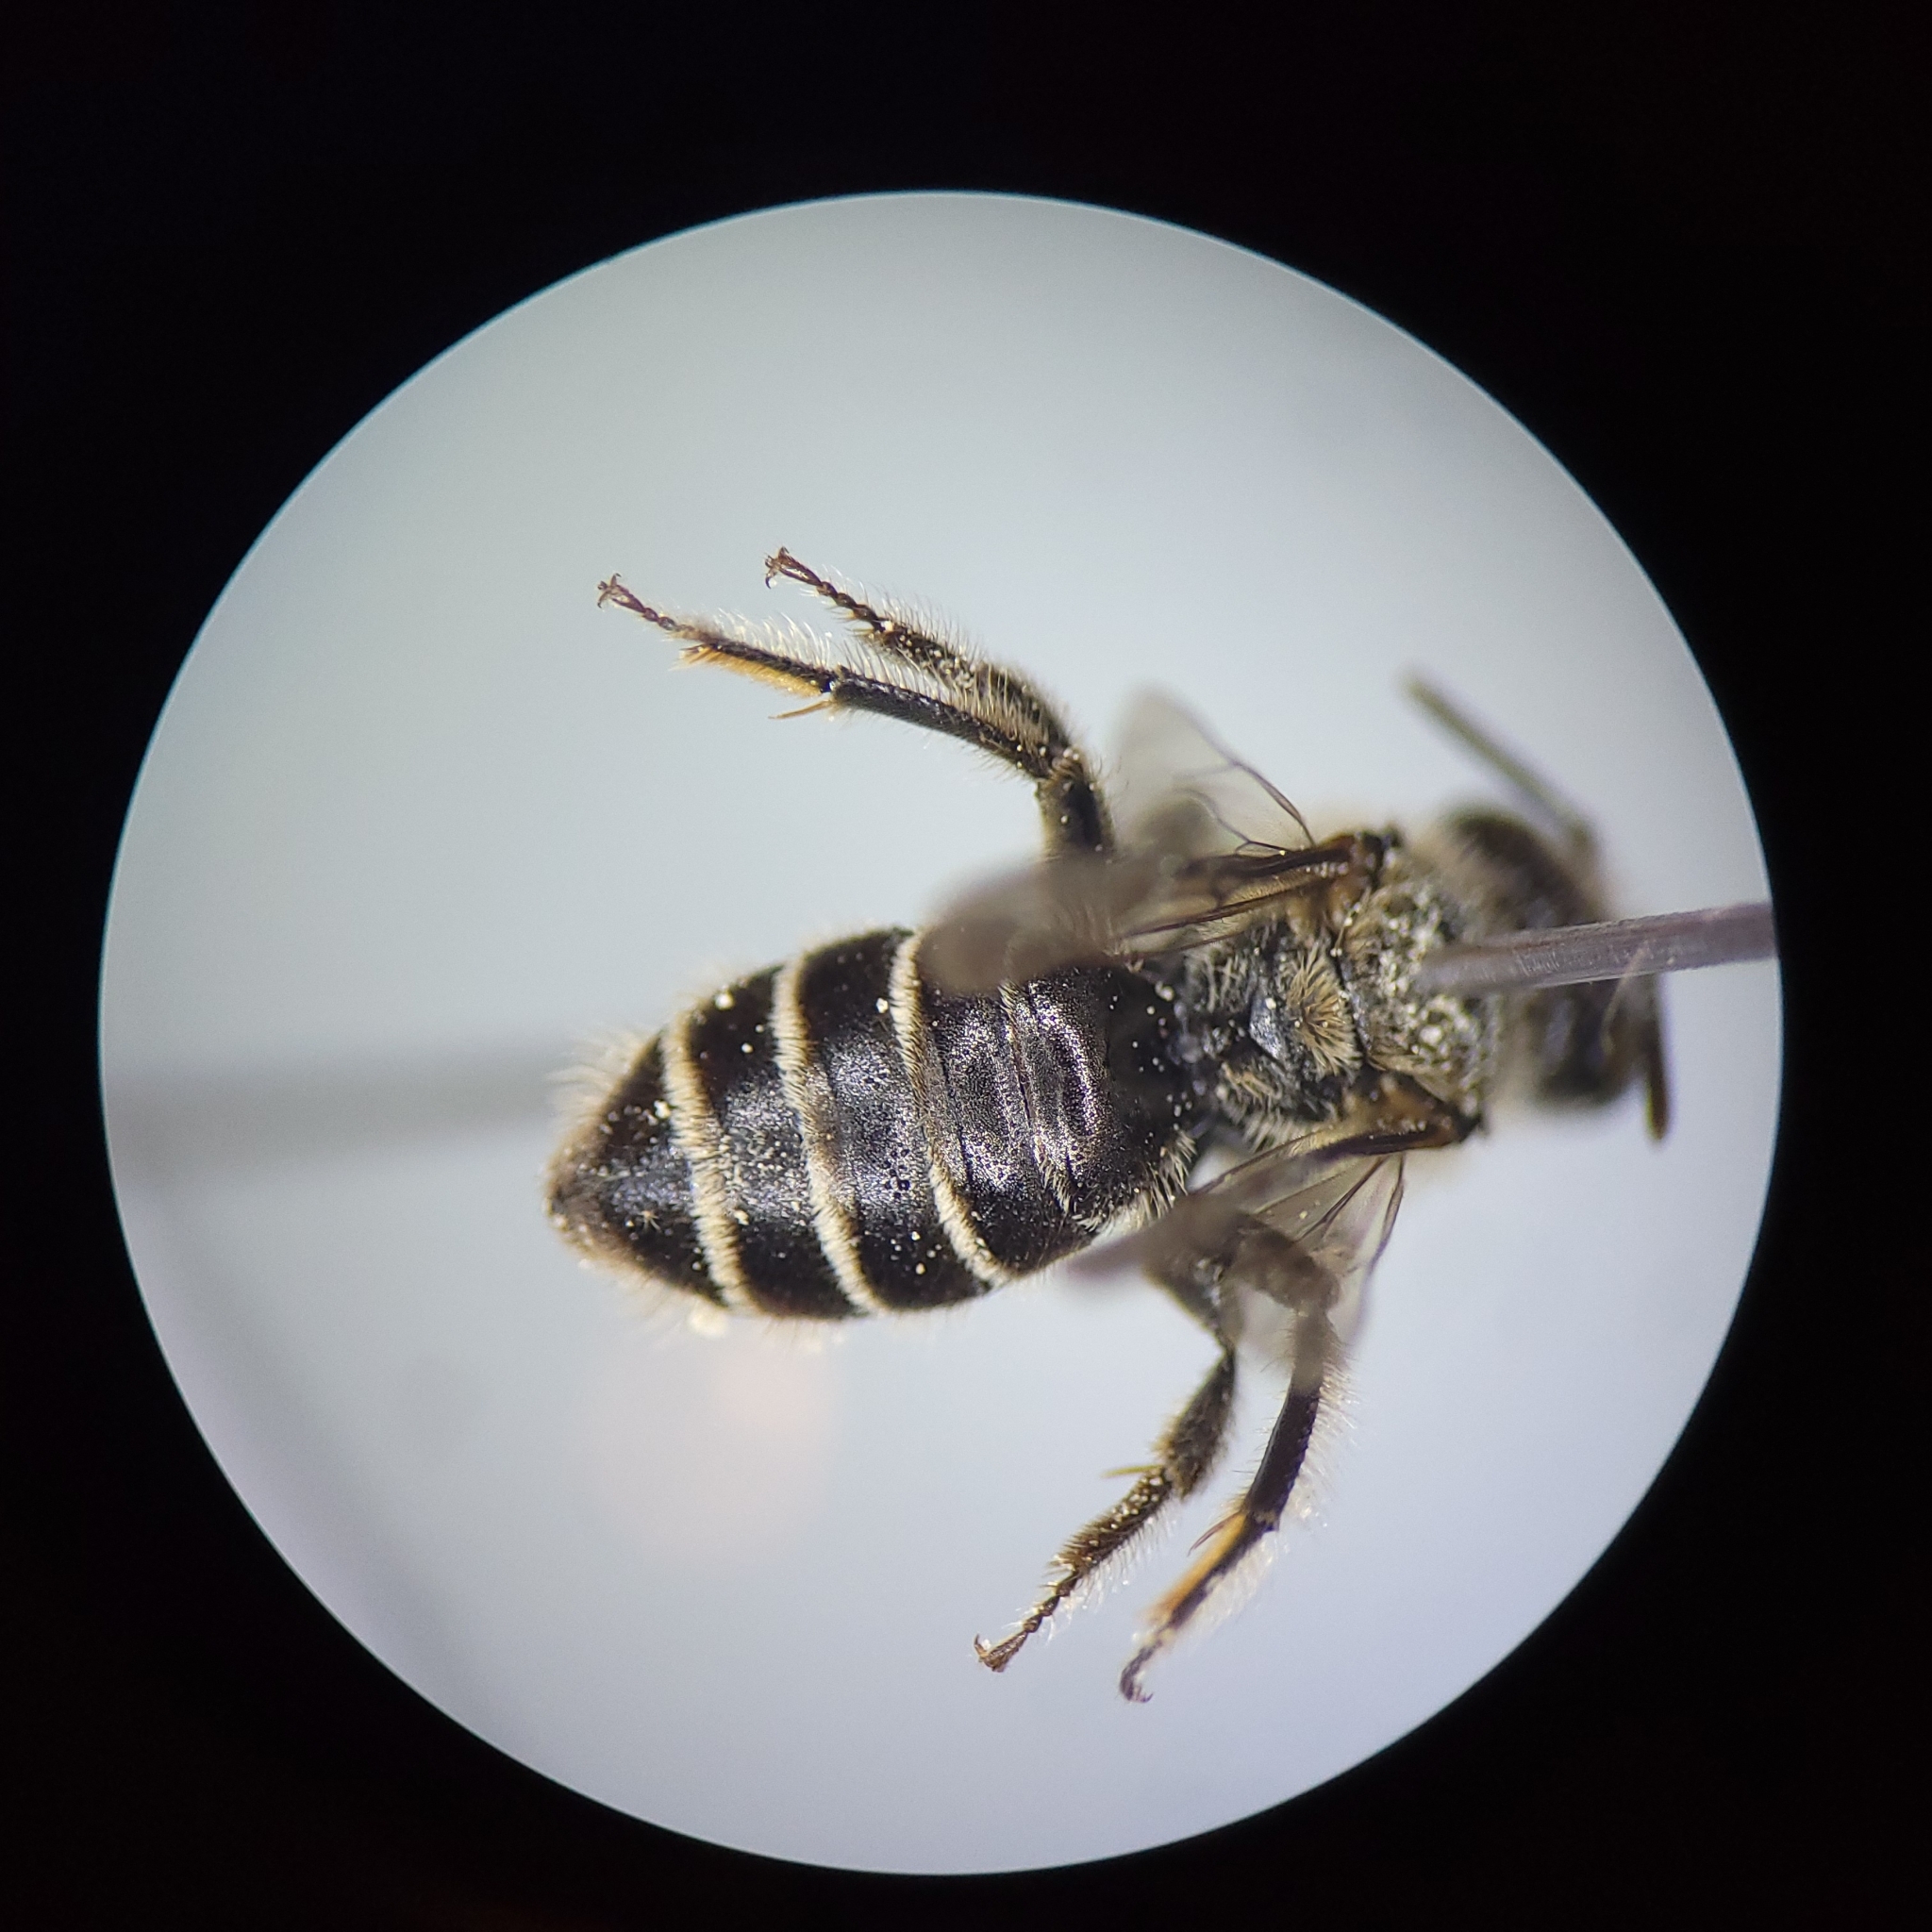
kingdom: Animalia
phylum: Arthropoda
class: Insecta
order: Hymenoptera
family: Andrenidae
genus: Calliopsis
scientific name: Calliopsis andreniformis
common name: Eastern calliopsis bee
